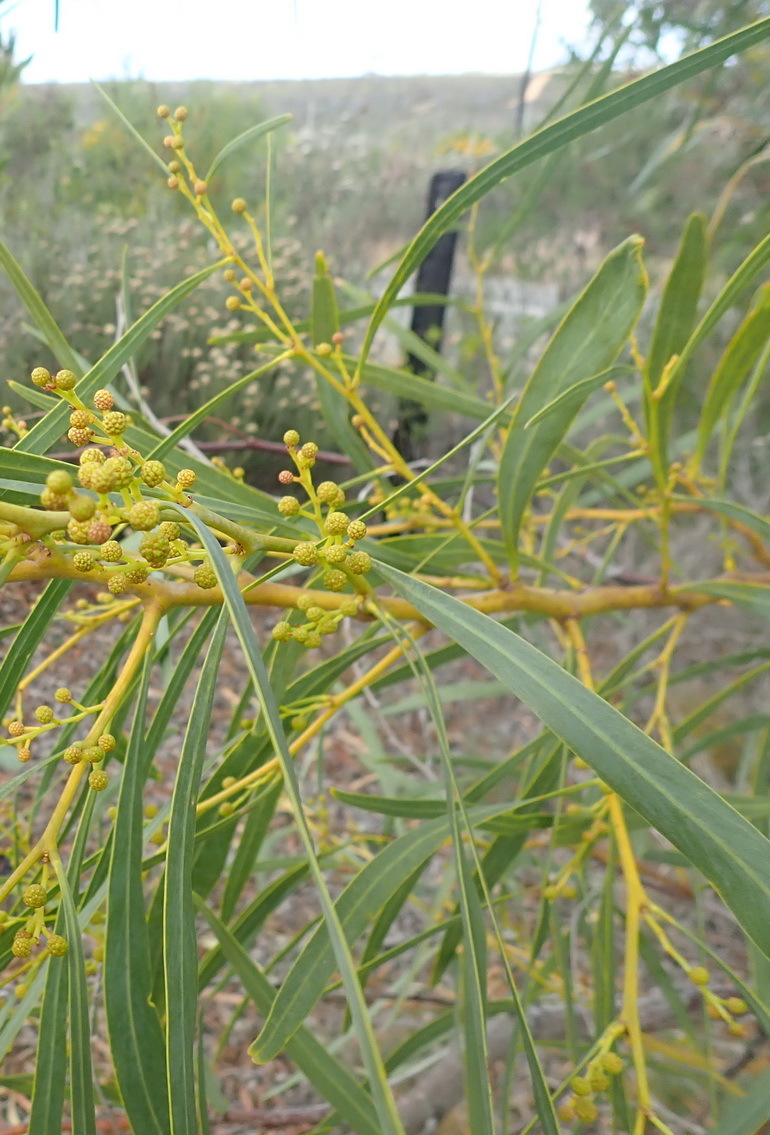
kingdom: Plantae
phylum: Tracheophyta
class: Magnoliopsida
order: Fabales
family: Fabaceae
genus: Acacia
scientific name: Acacia saligna
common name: Orange wattle
